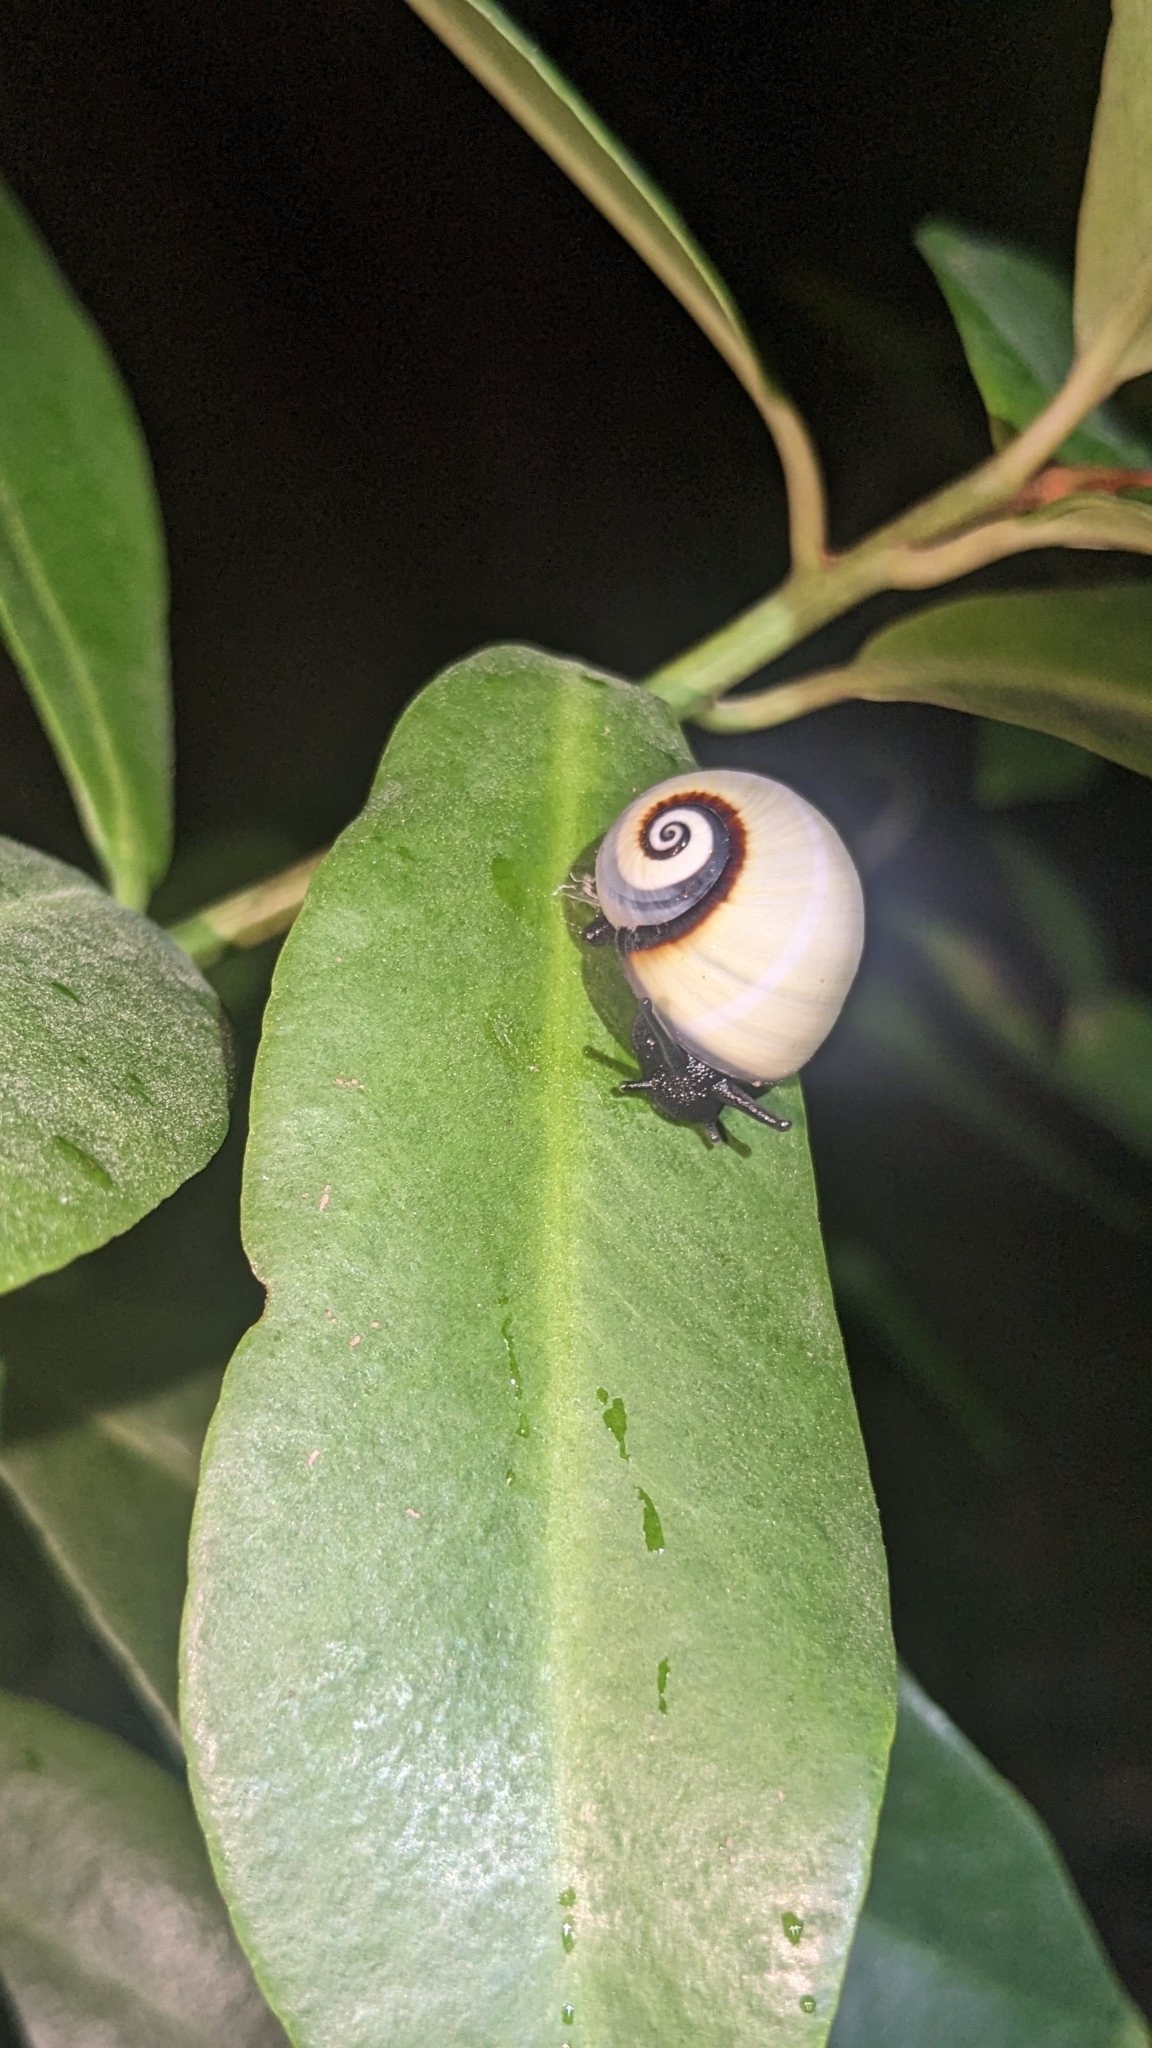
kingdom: Animalia
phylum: Mollusca
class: Gastropoda
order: Stylommatophora
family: Cepolidae
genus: Polymita
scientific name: Polymita picta
